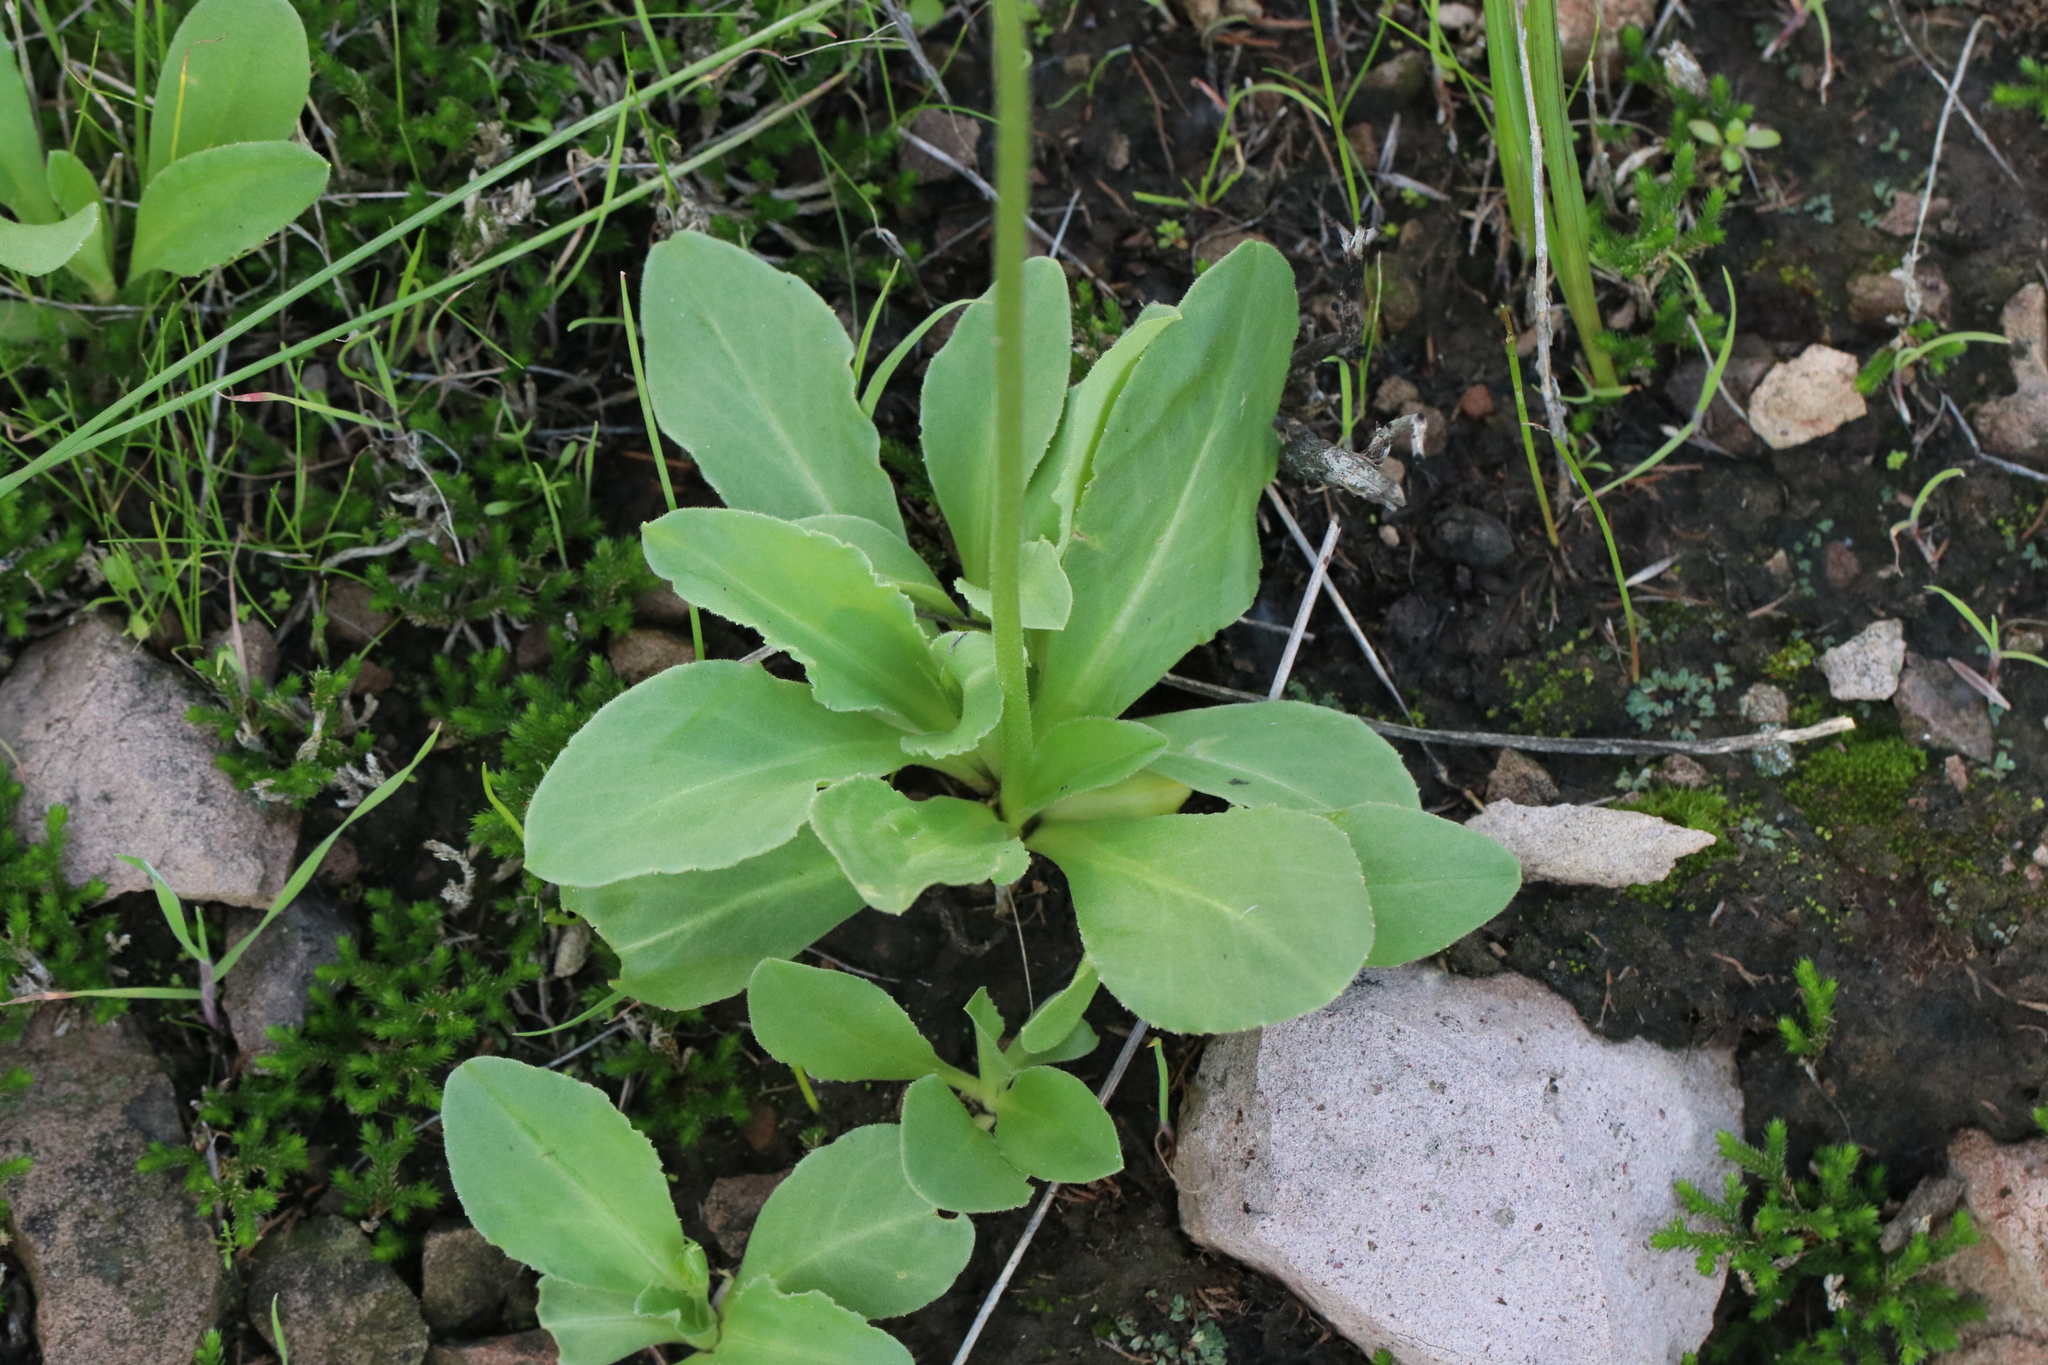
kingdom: Plantae
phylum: Tracheophyta
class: Magnoliopsida
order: Ericales
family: Primulaceae
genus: Dodecatheon
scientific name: Dodecatheon clevelandii
